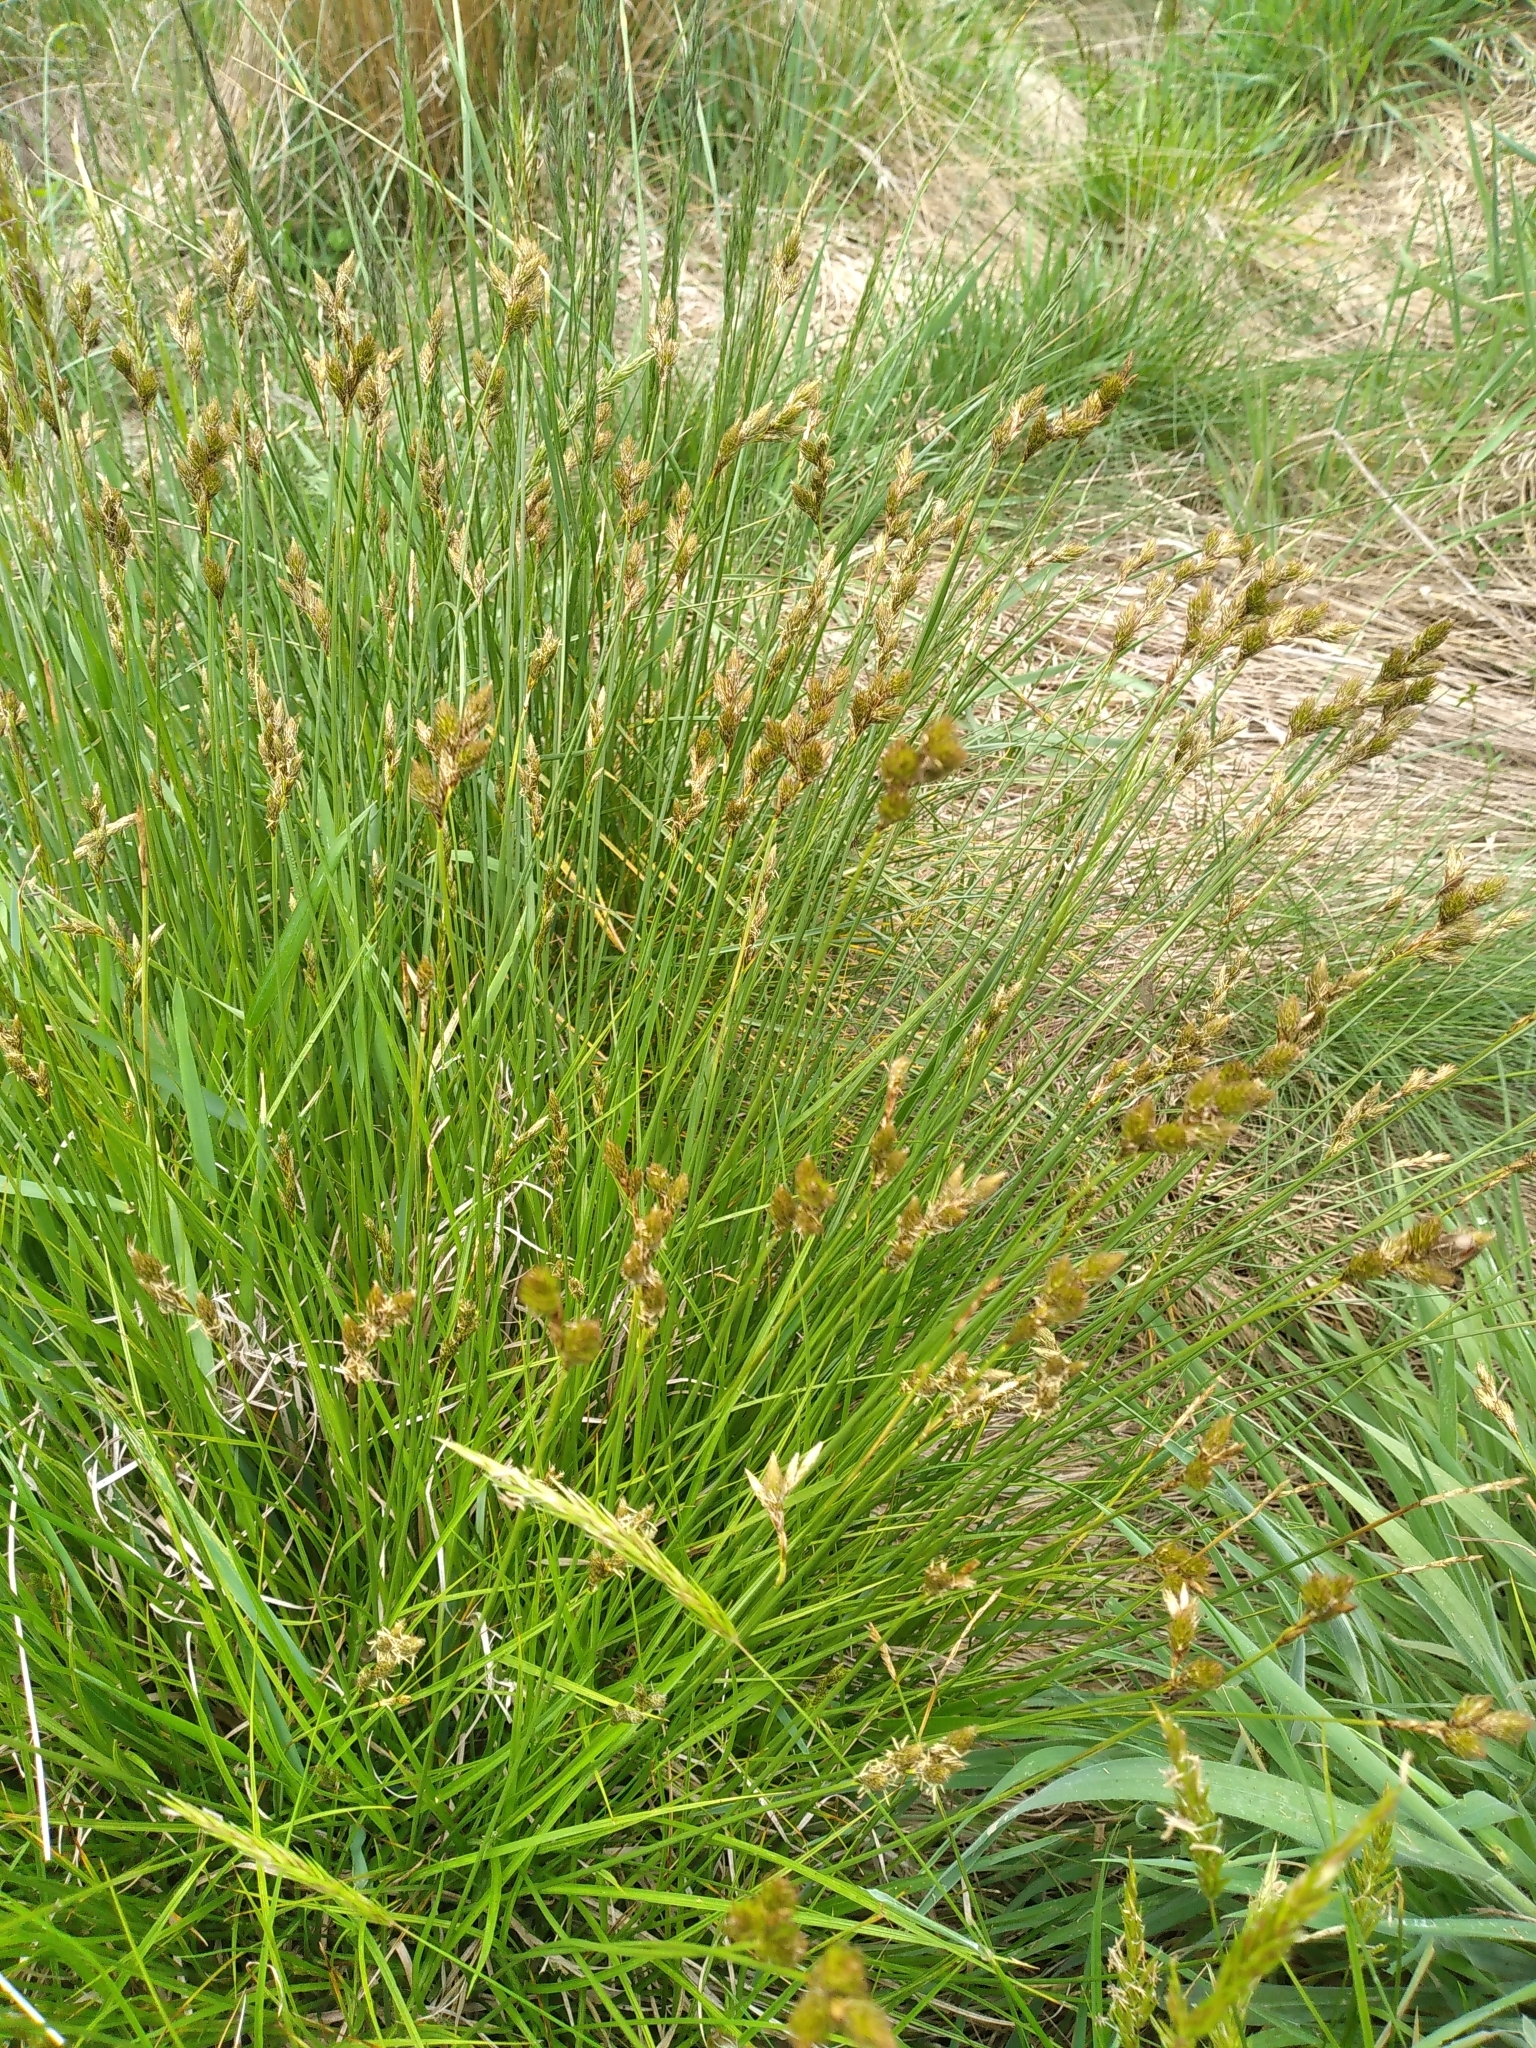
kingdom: Plantae
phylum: Tracheophyta
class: Liliopsida
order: Poales
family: Cyperaceae
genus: Carex
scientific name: Carex leporina
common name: Oval sedge
